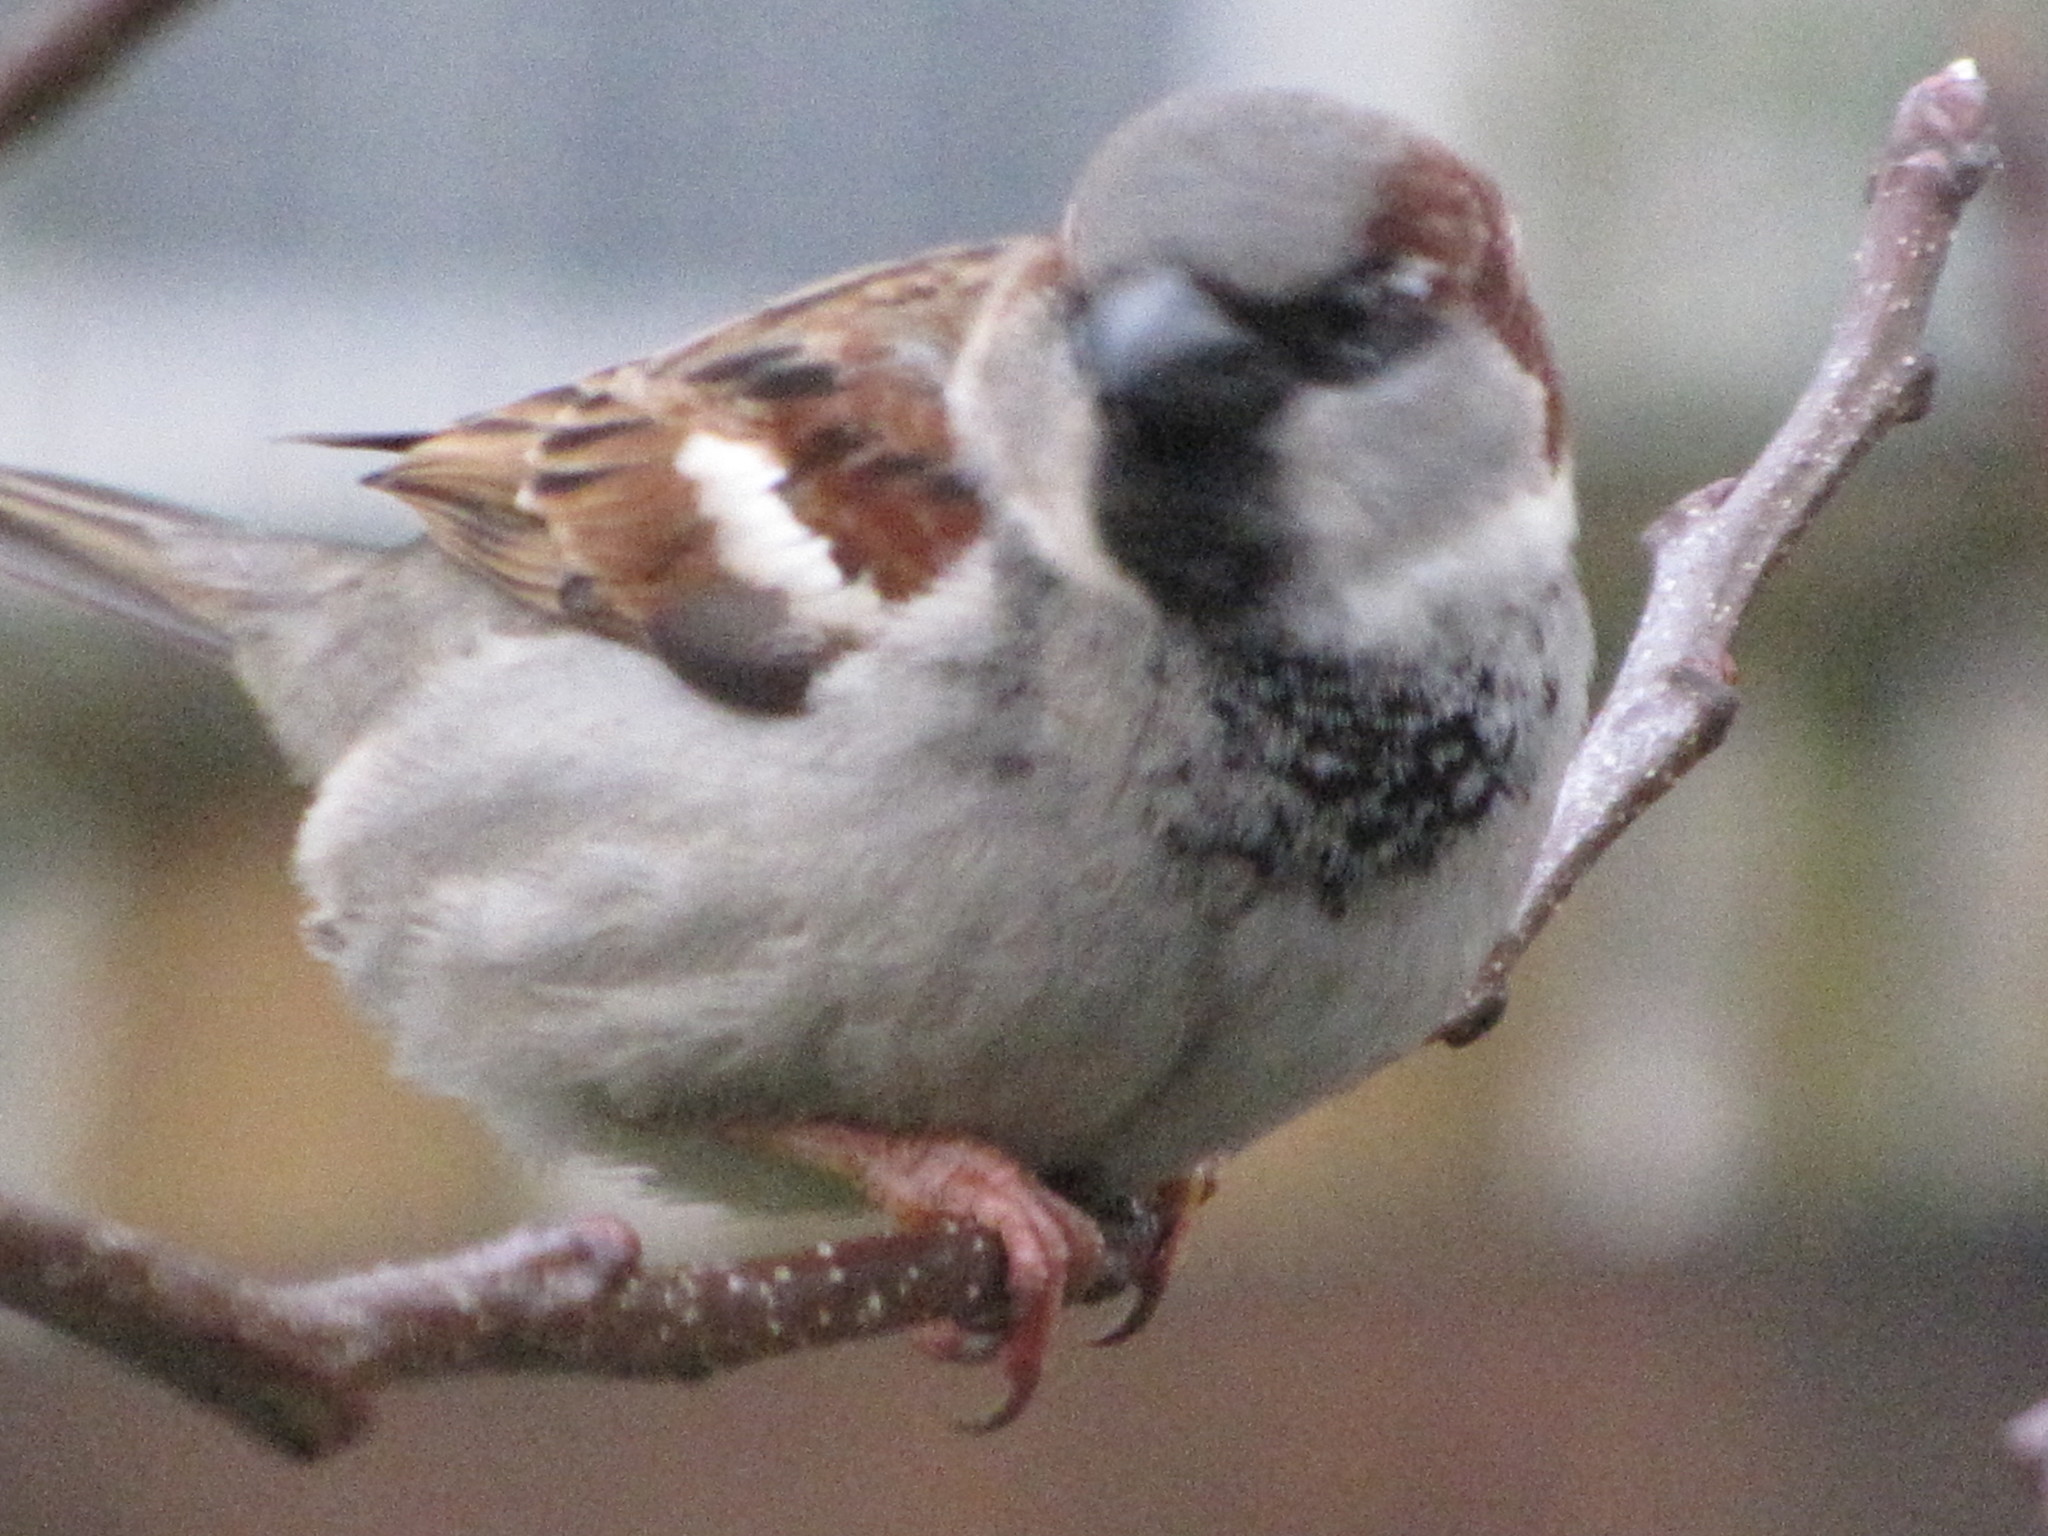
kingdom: Animalia
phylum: Chordata
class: Aves
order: Passeriformes
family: Passeridae
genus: Passer
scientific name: Passer domesticus
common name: House sparrow
